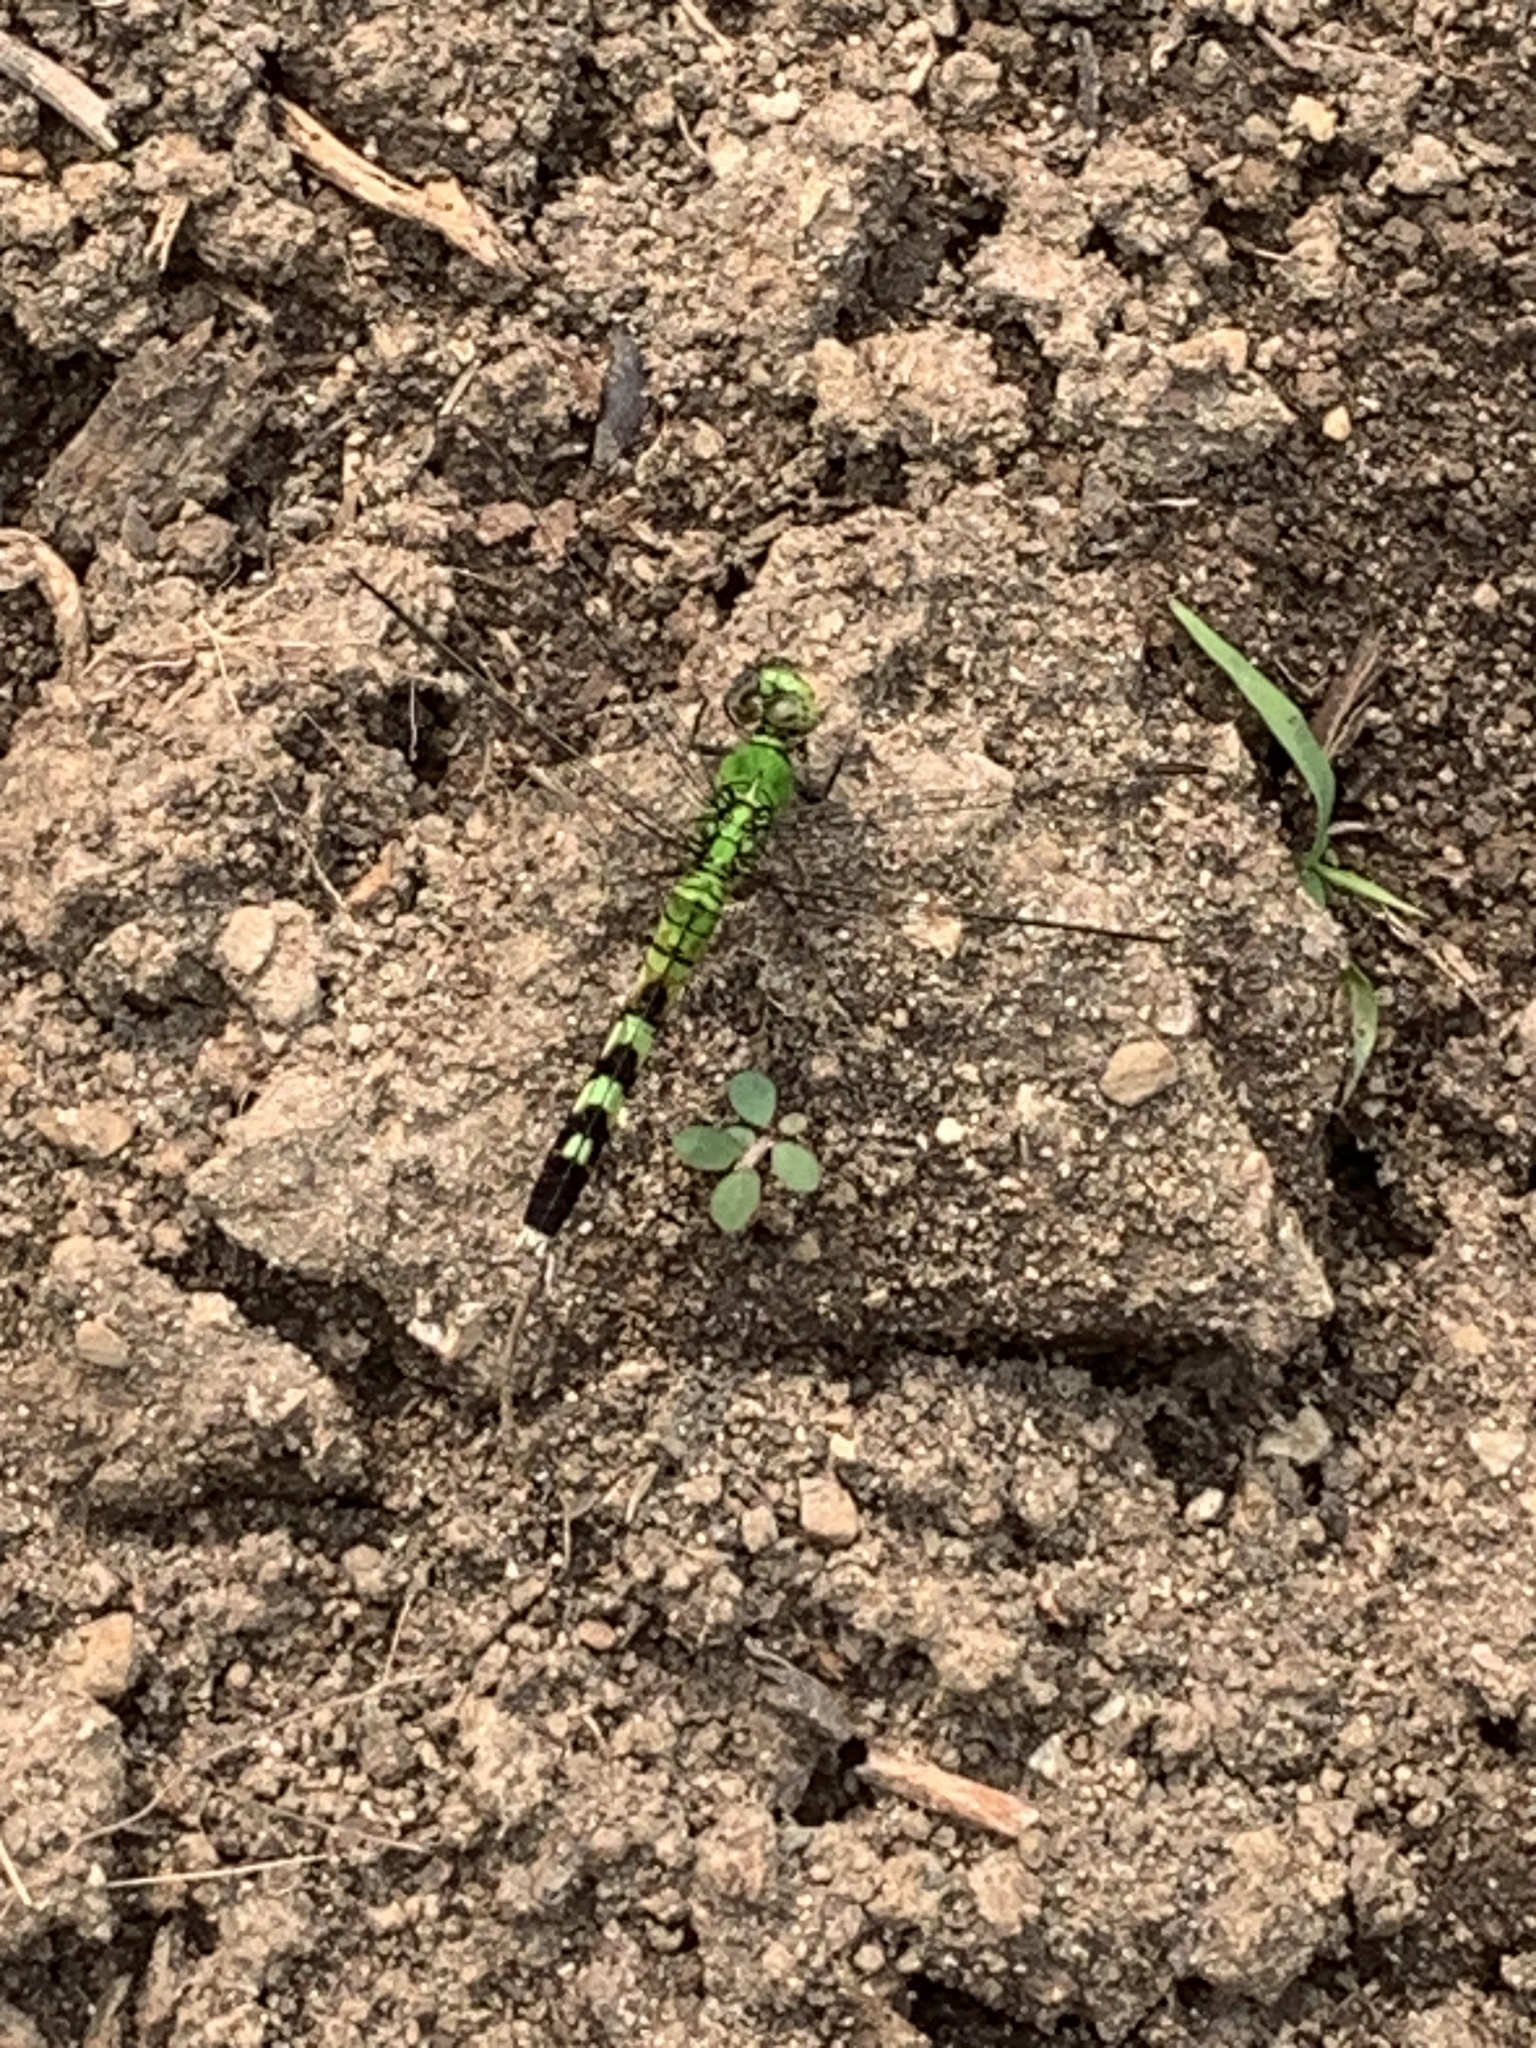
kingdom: Animalia
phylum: Arthropoda
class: Insecta
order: Odonata
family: Libellulidae
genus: Erythemis
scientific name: Erythemis simplicicollis
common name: Eastern pondhawk
